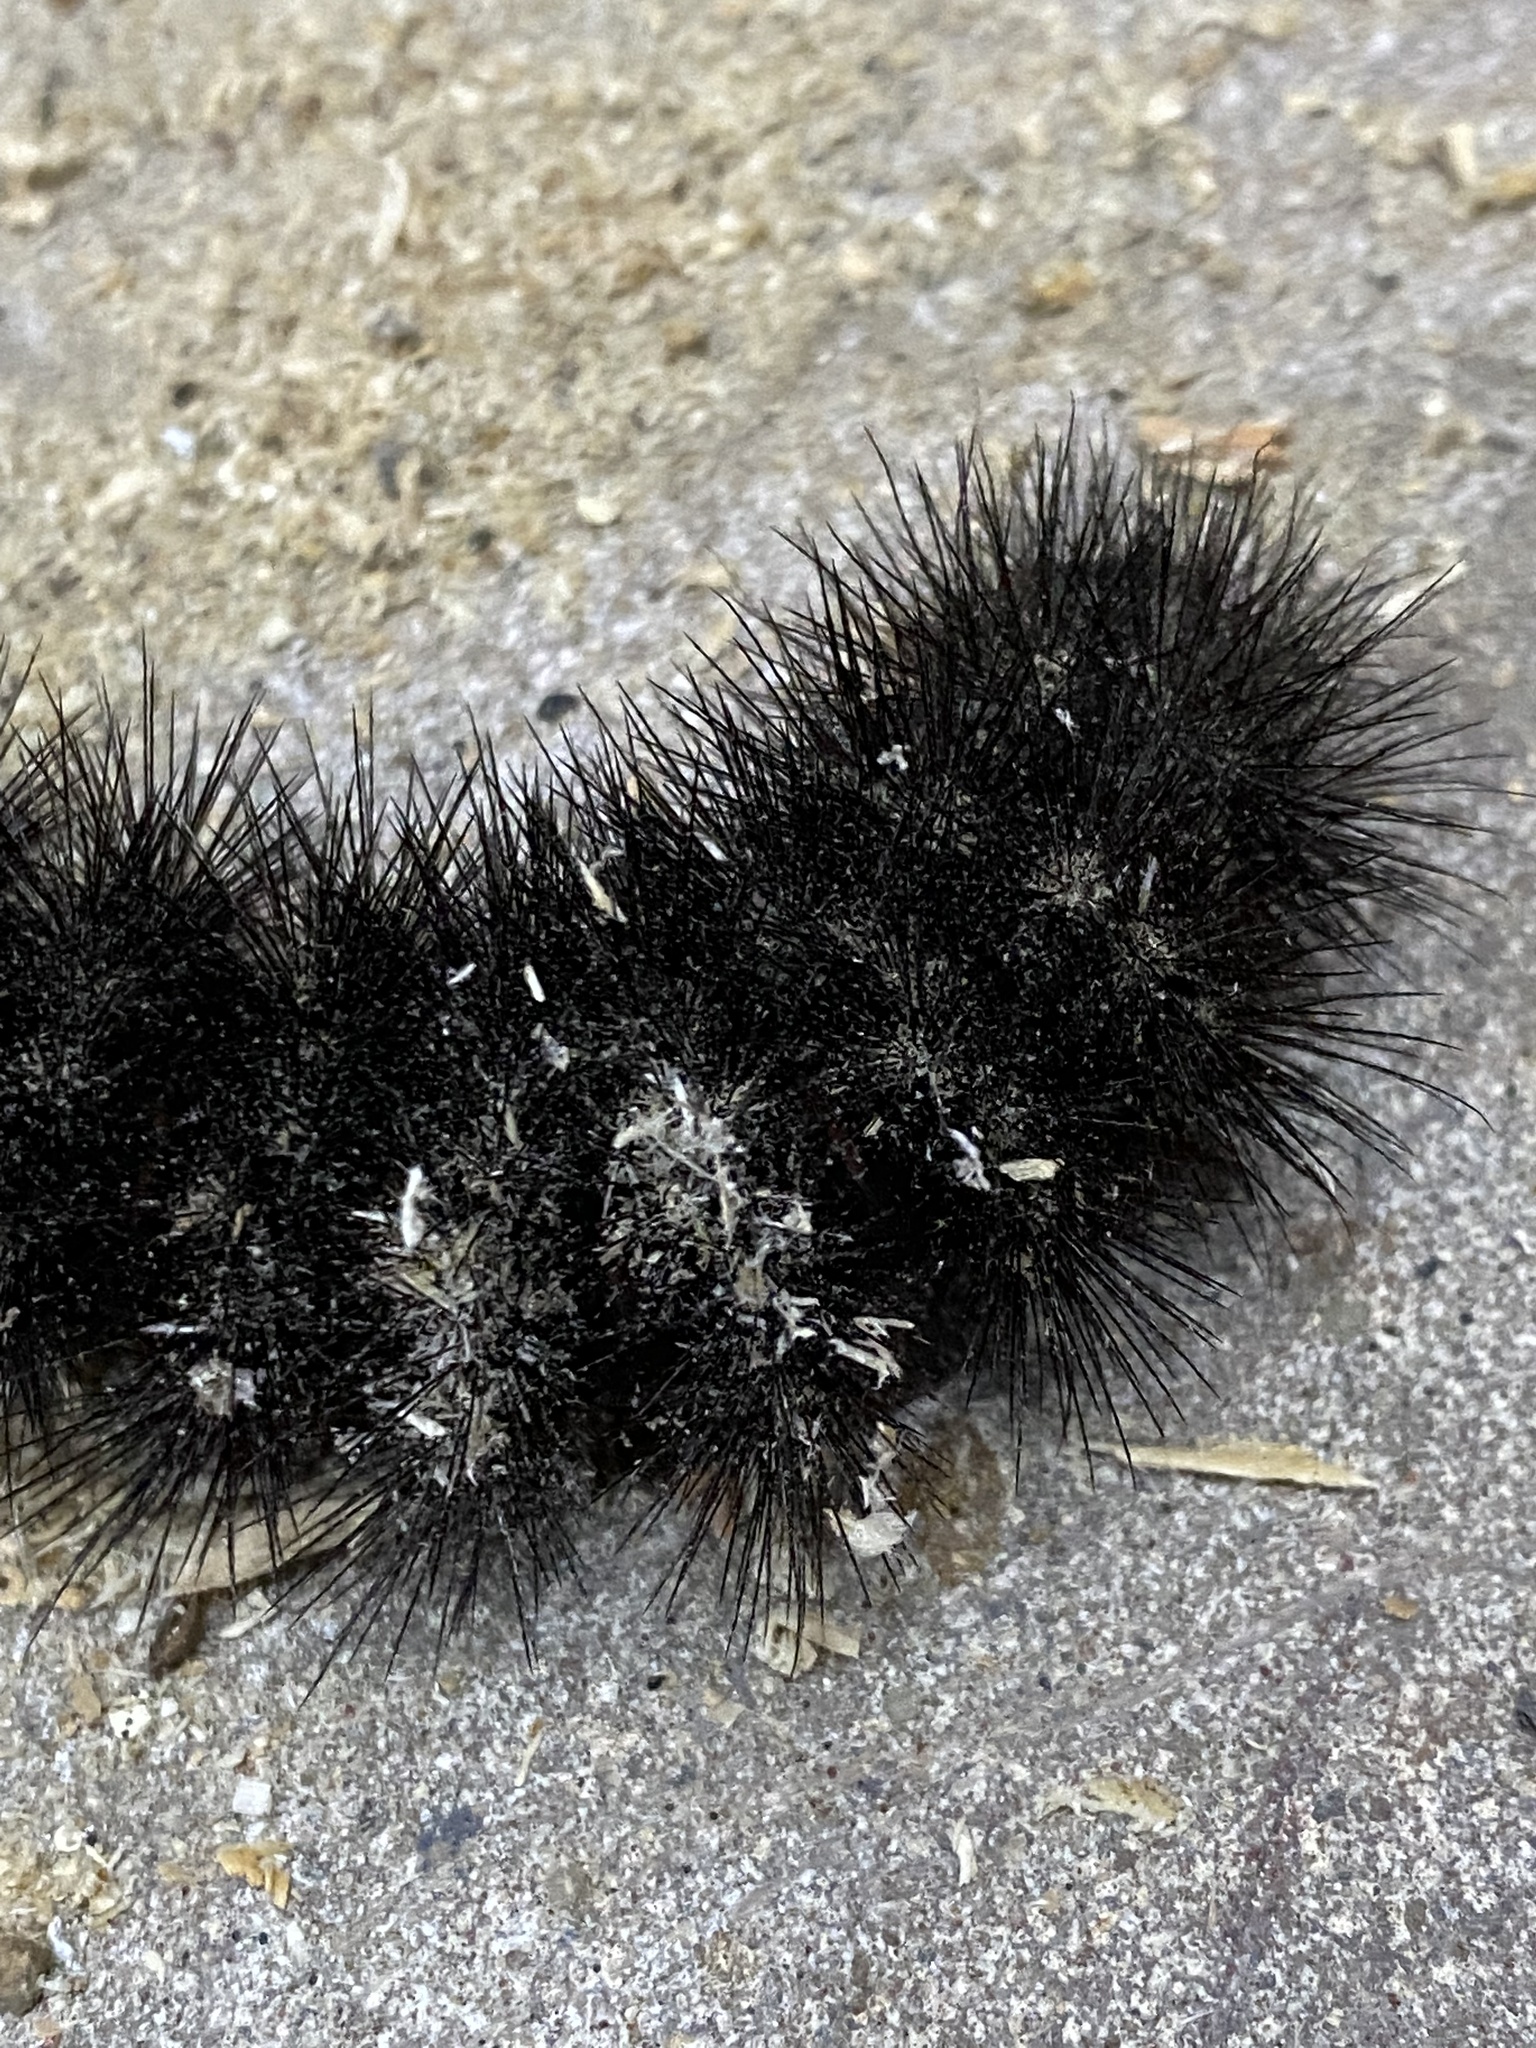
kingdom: Animalia
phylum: Arthropoda
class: Insecta
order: Lepidoptera
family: Erebidae
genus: Hypercompe
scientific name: Hypercompe scribonia
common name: Giant leopard moth
